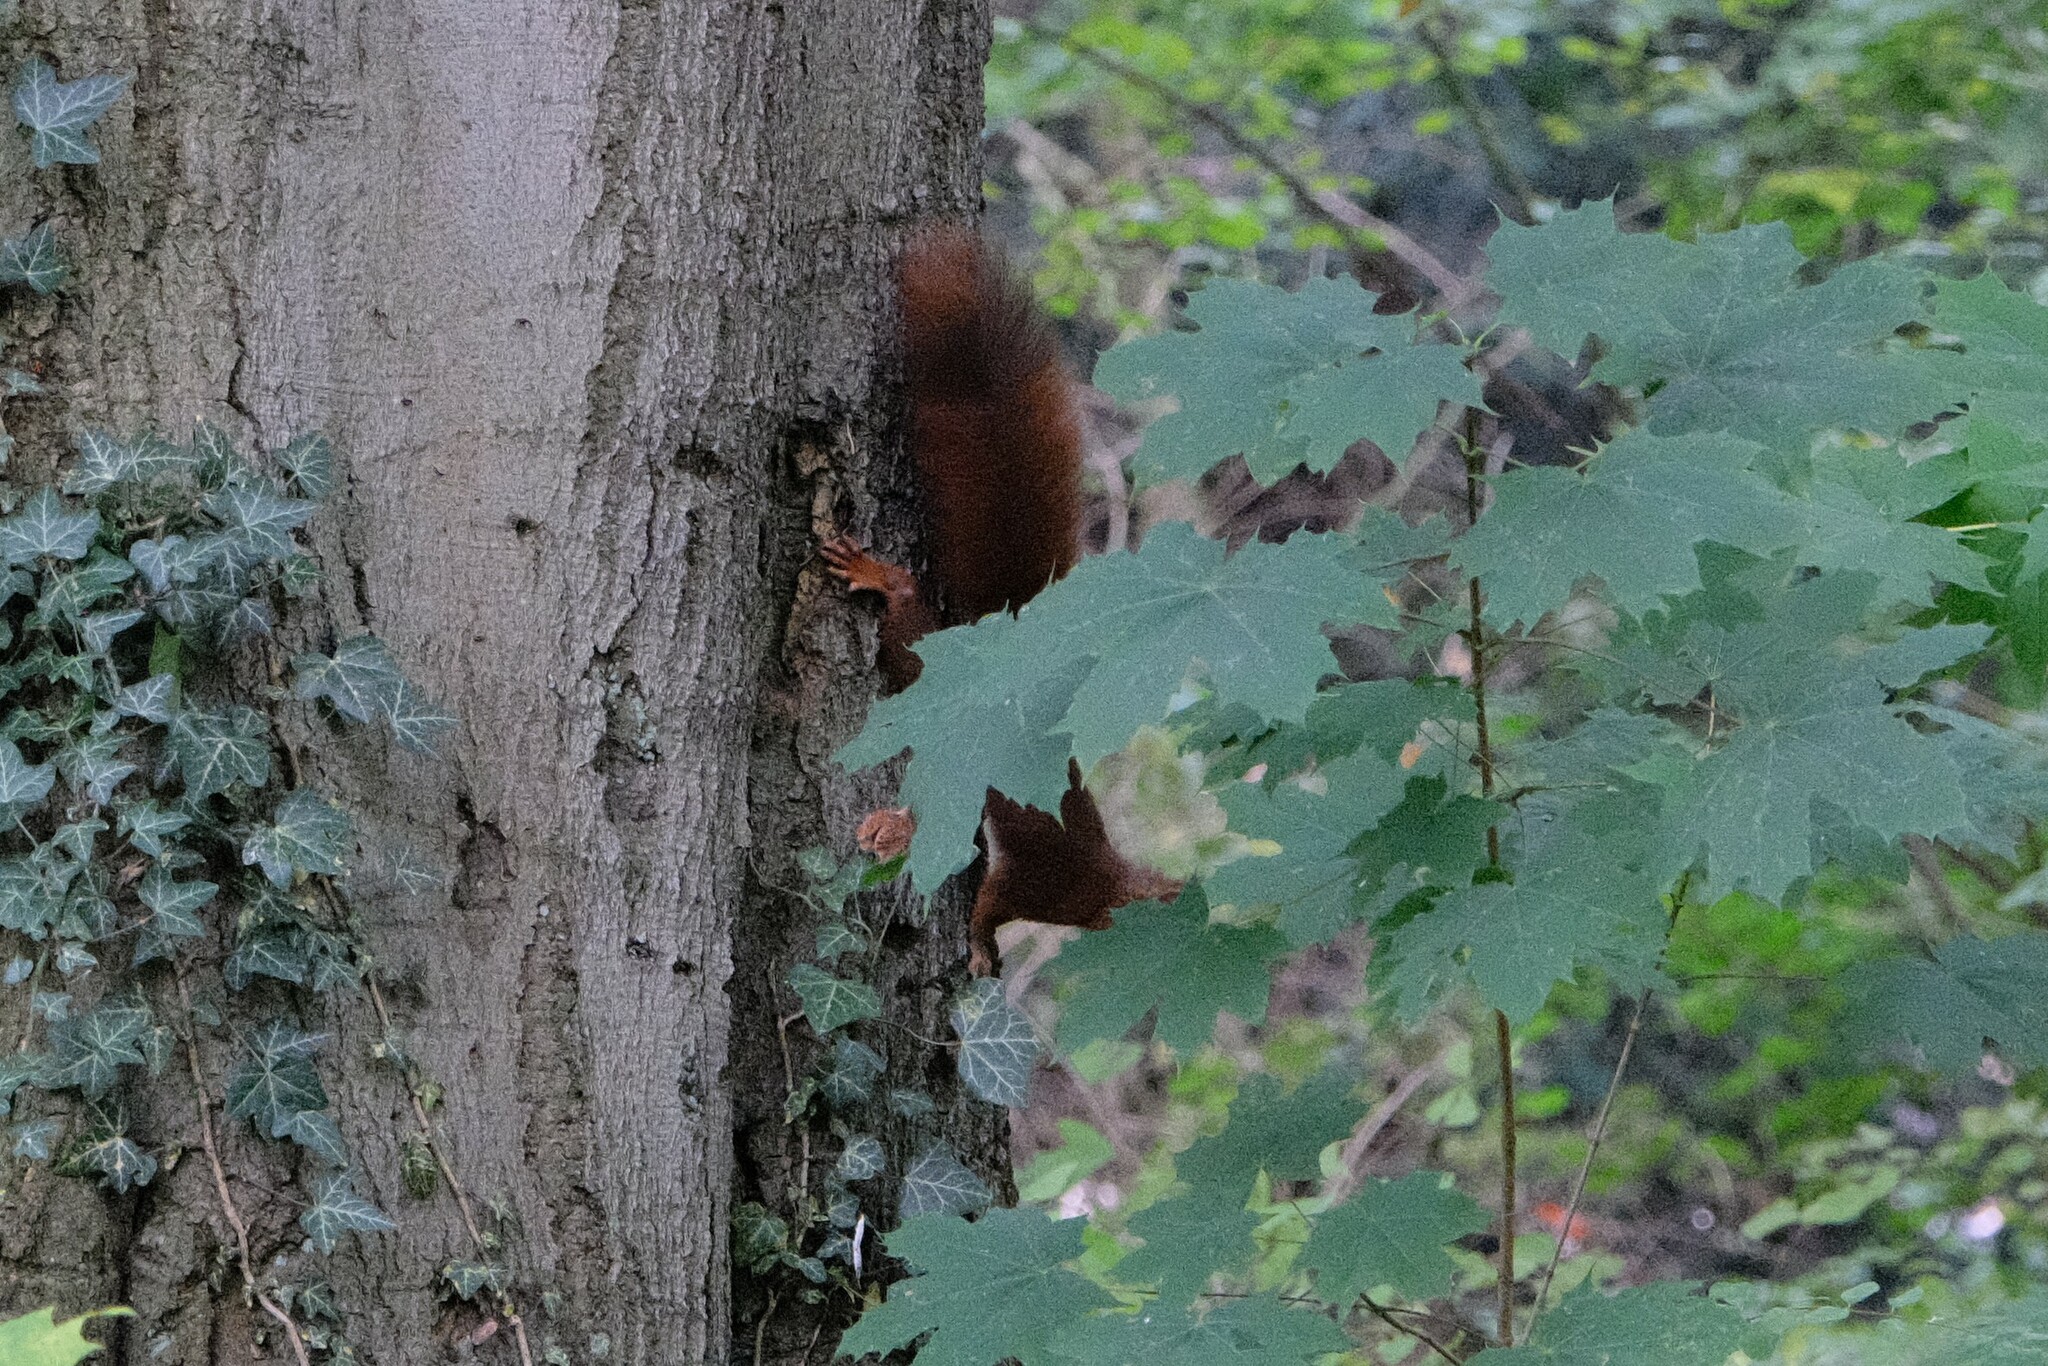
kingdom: Animalia
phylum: Chordata
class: Mammalia
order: Rodentia
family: Sciuridae
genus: Sciurus
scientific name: Sciurus vulgaris
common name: Eurasian red squirrel
